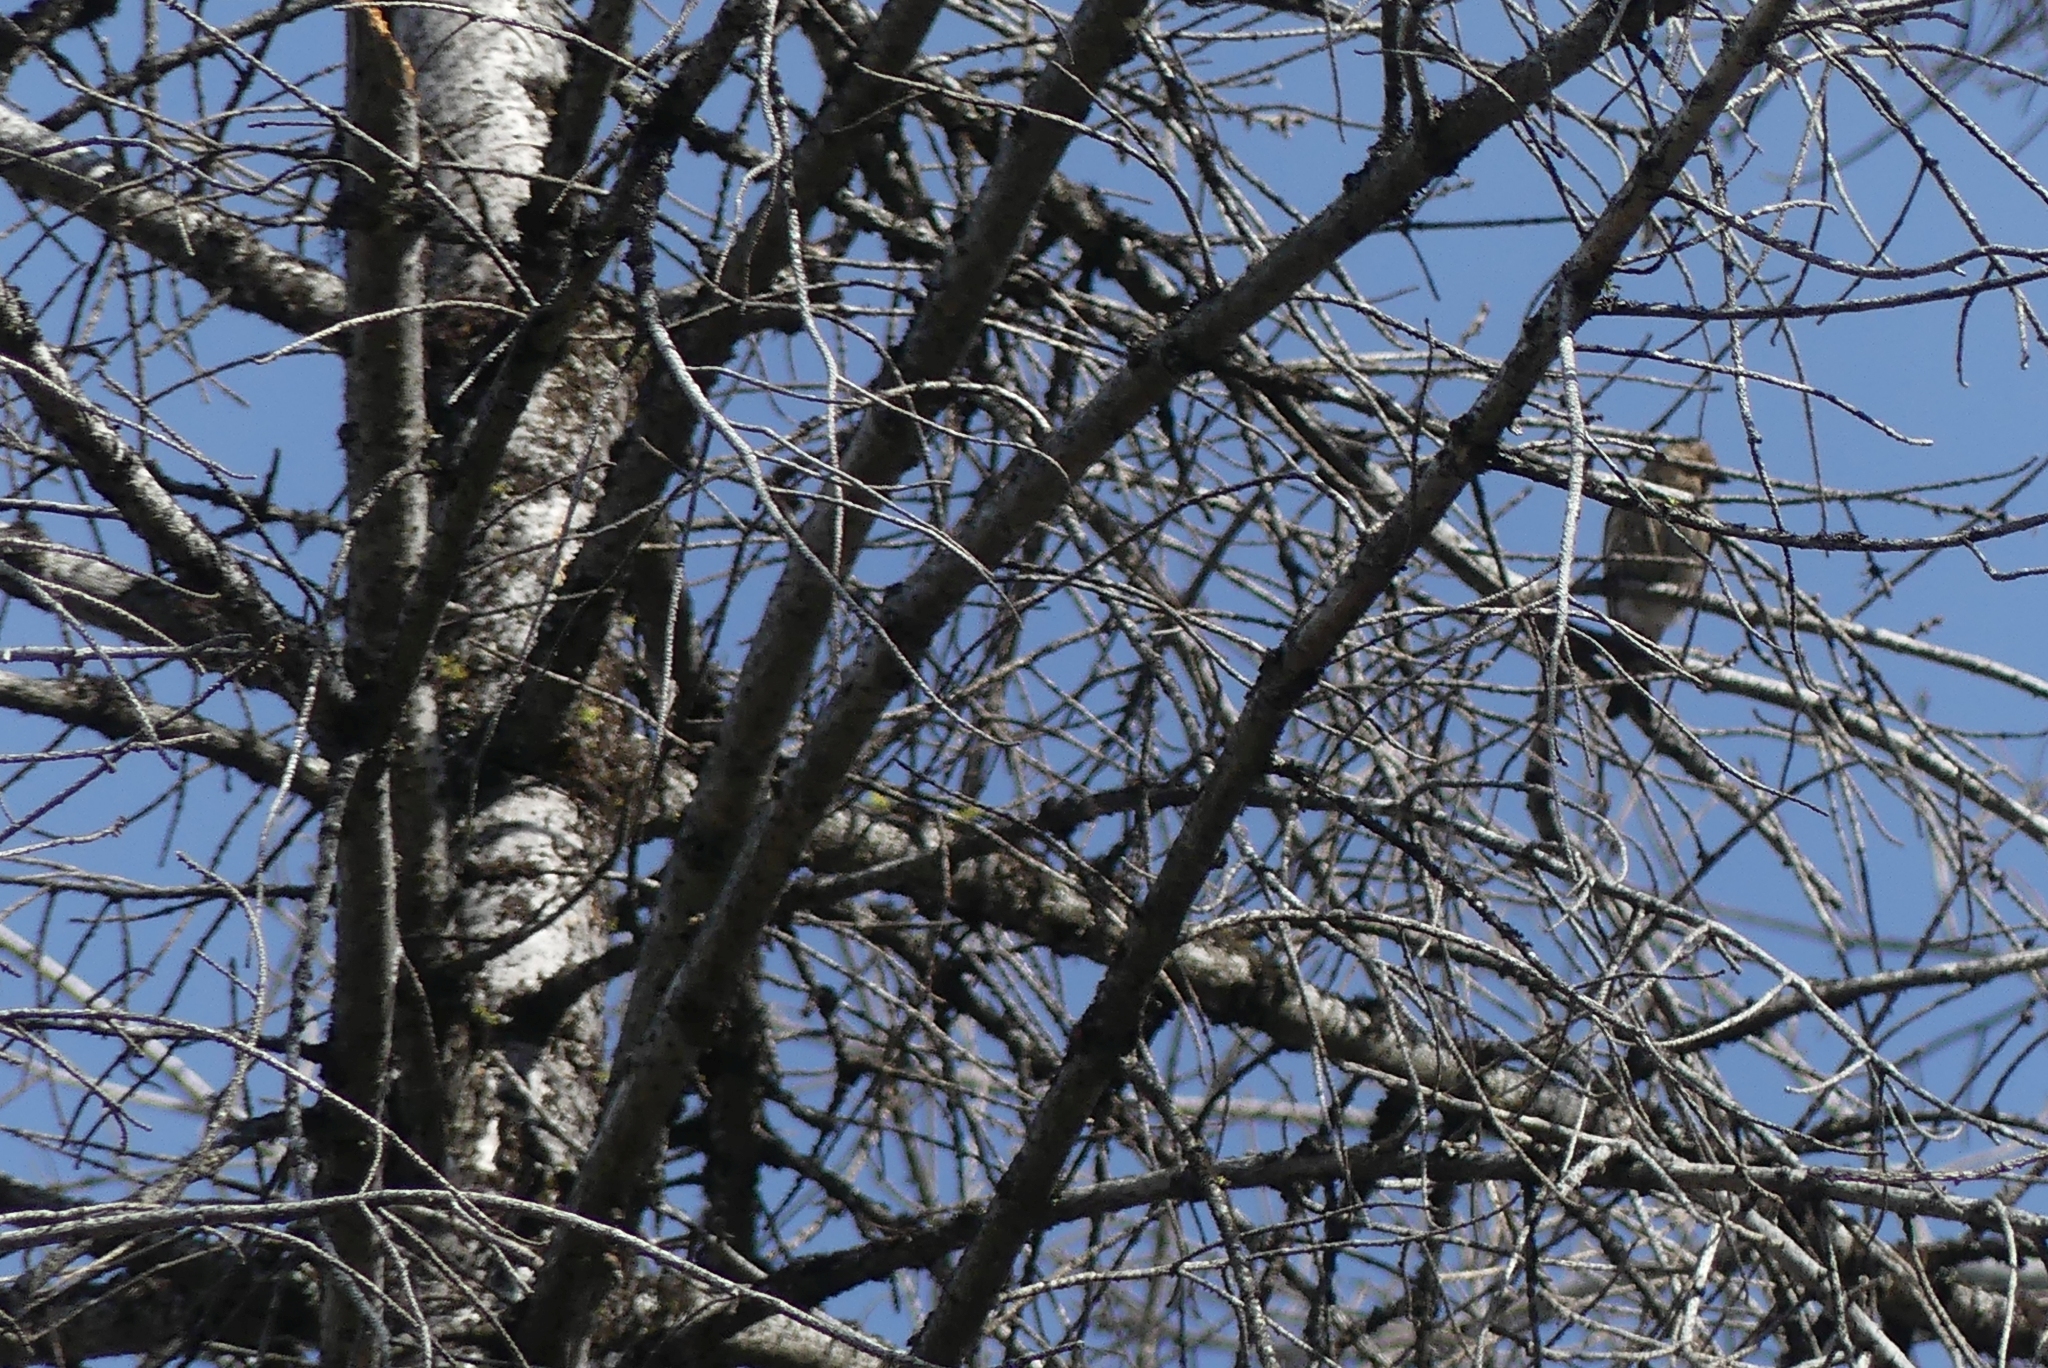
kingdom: Animalia
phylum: Chordata
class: Aves
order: Passeriformes
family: Fringillidae
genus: Spinus
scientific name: Spinus pinus
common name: Pine siskin
